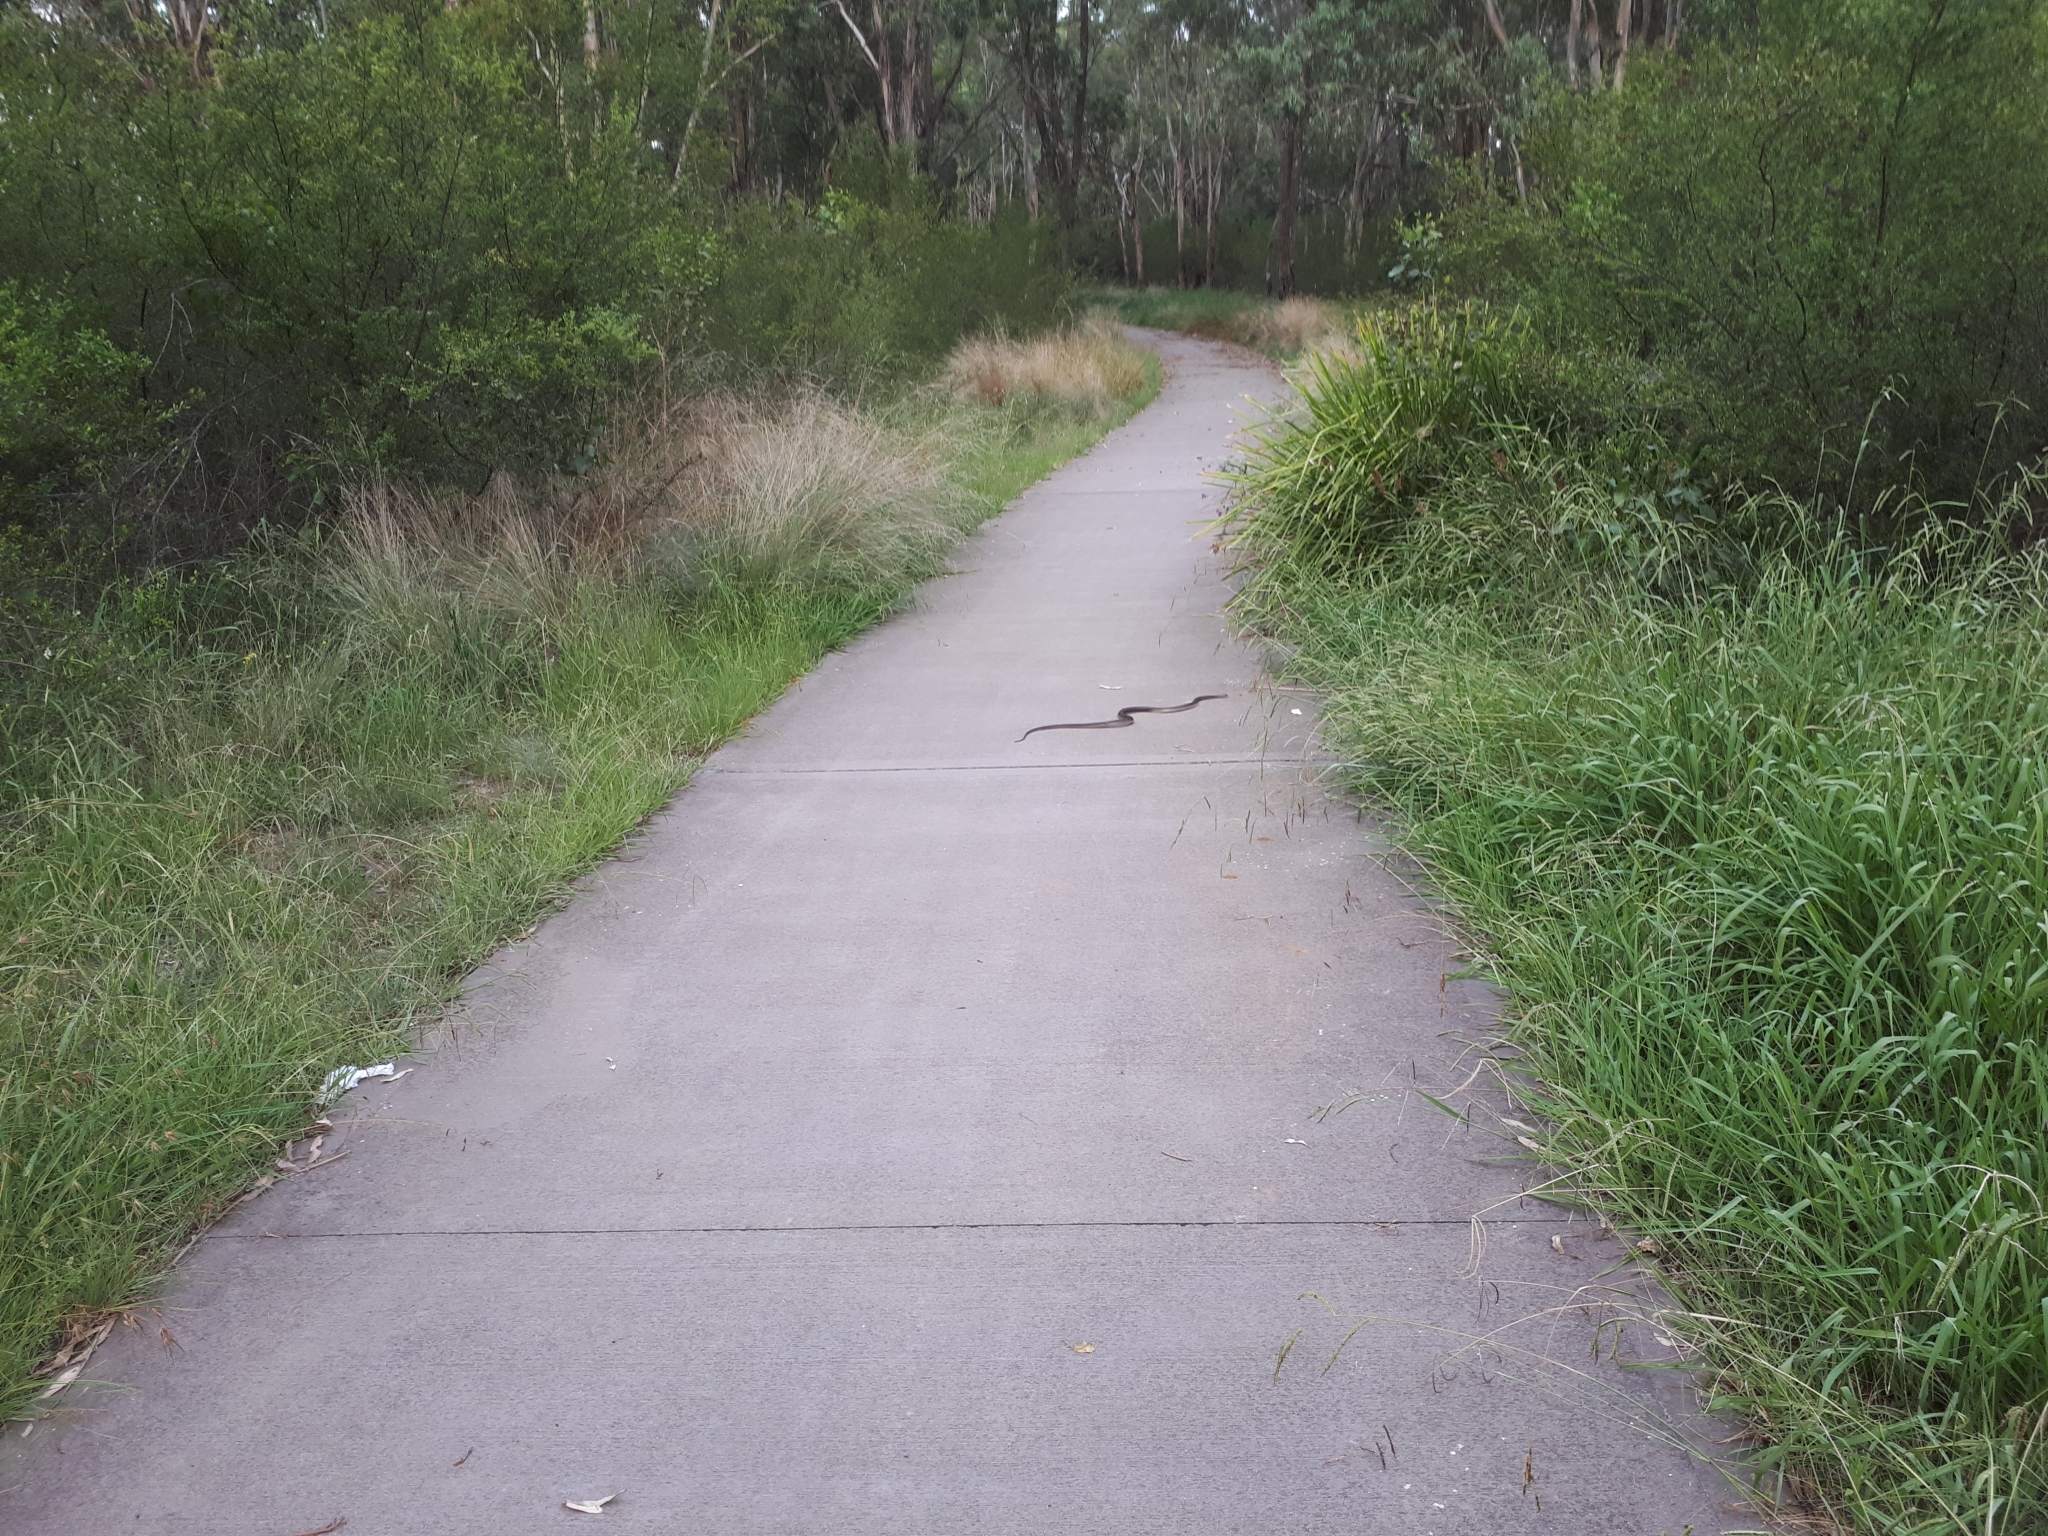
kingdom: Animalia
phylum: Chordata
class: Squamata
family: Elapidae
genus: Pseudonaja
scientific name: Pseudonaja textilis
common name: Eastern brown snake
